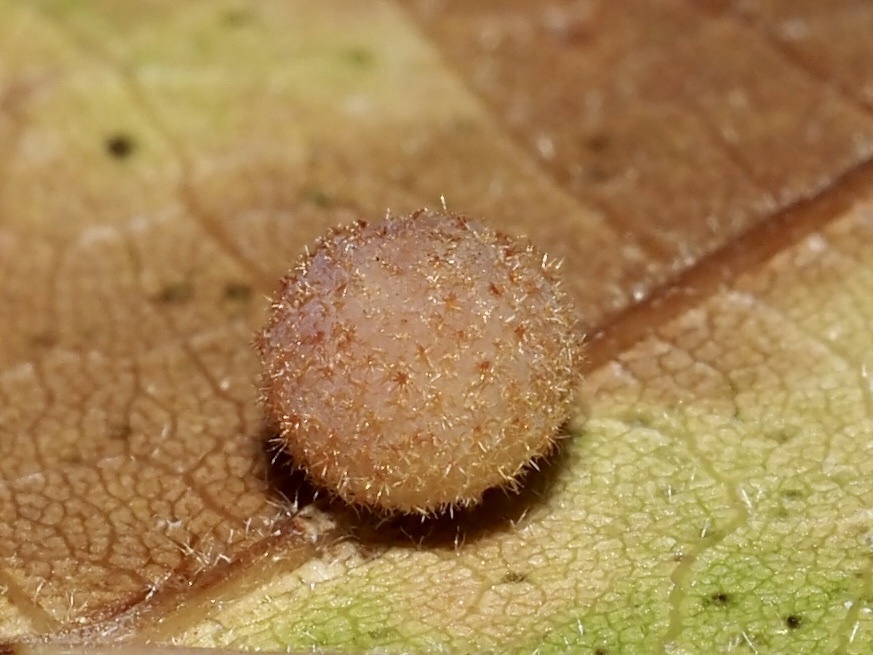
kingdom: Animalia
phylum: Arthropoda
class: Insecta
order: Hymenoptera
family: Cynipidae
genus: Philonix
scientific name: Philonix fulvicollis
